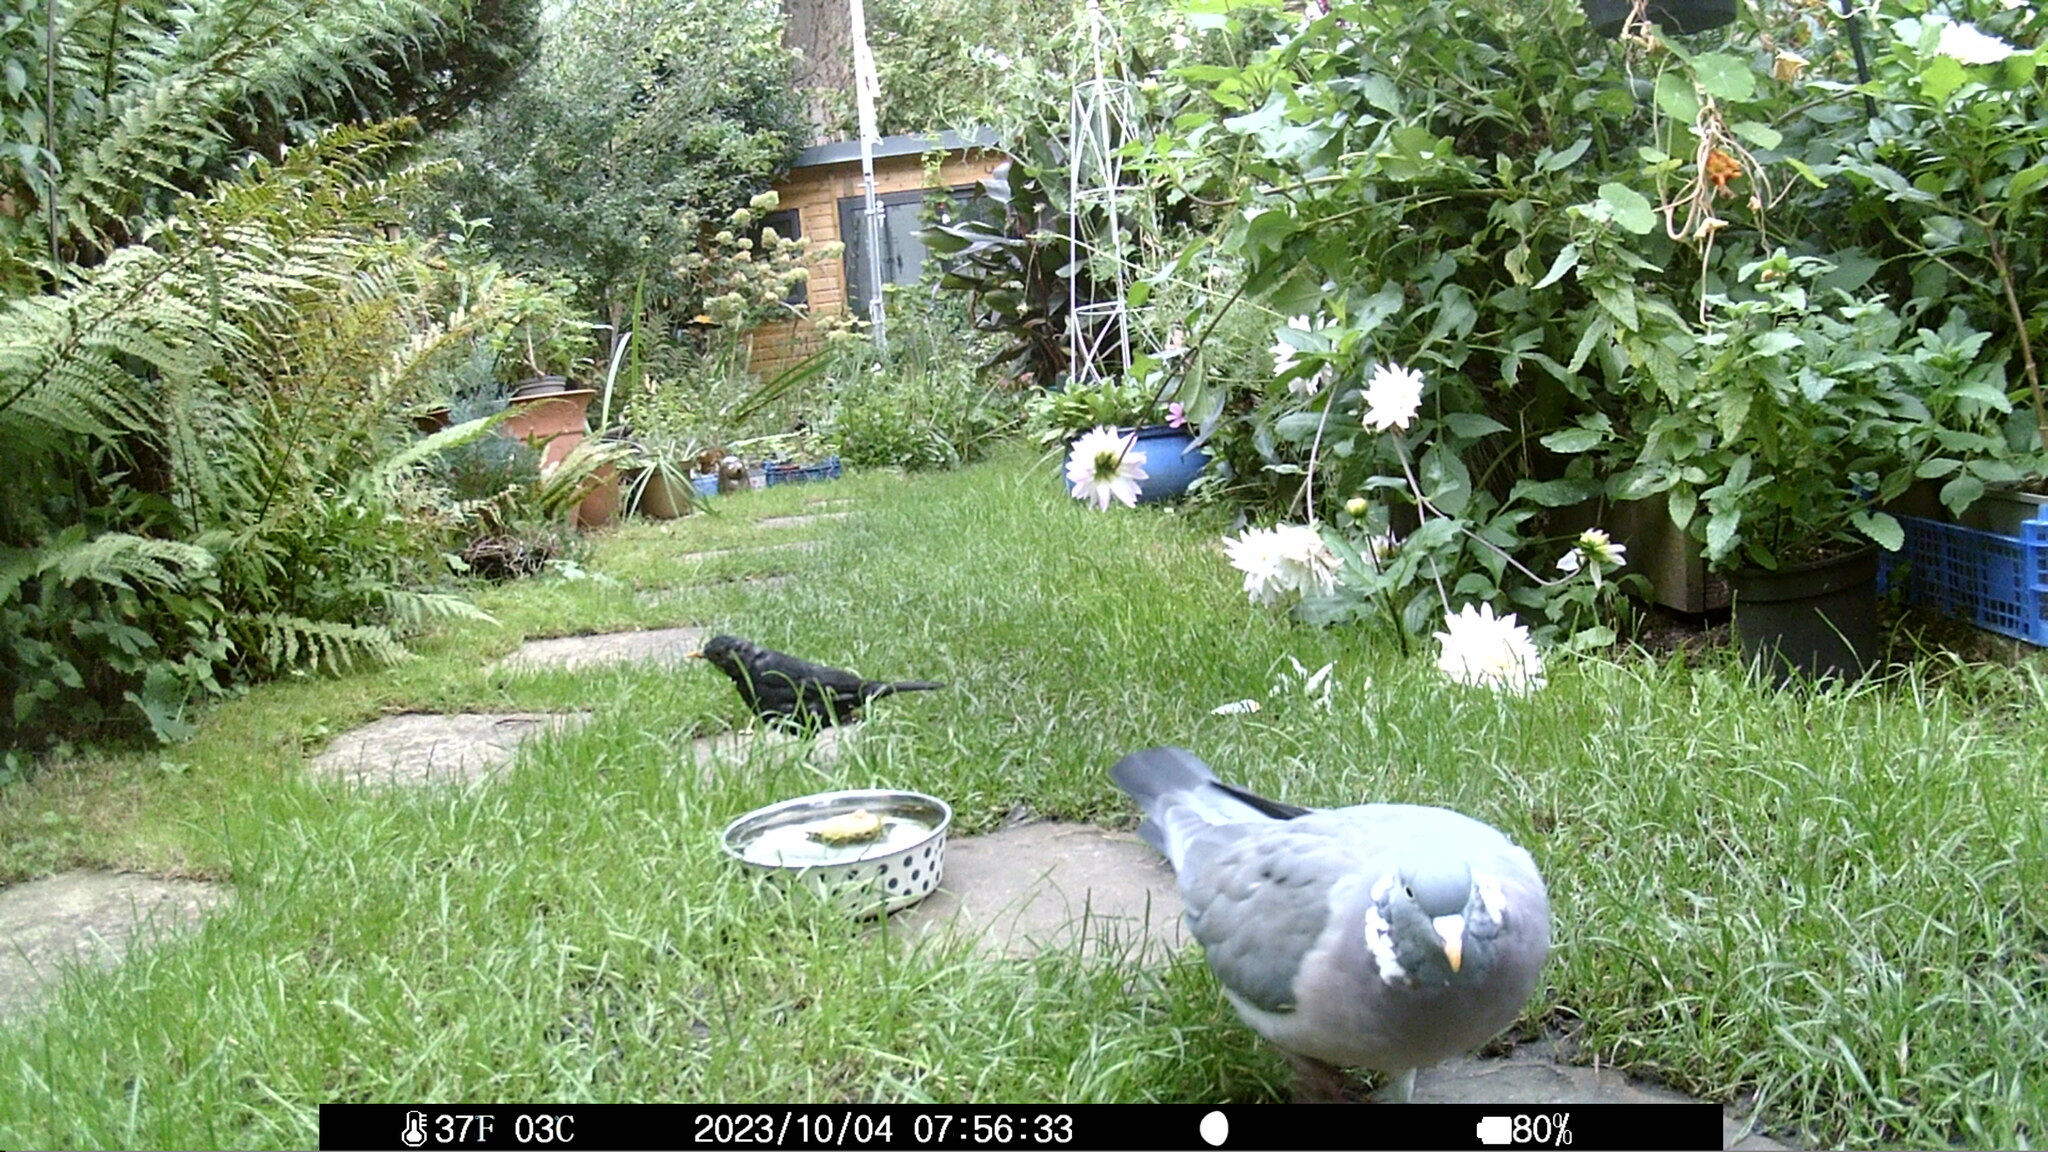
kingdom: Animalia
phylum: Chordata
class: Aves
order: Columbiformes
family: Columbidae
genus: Columba
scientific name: Columba palumbus
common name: Common wood pigeon
